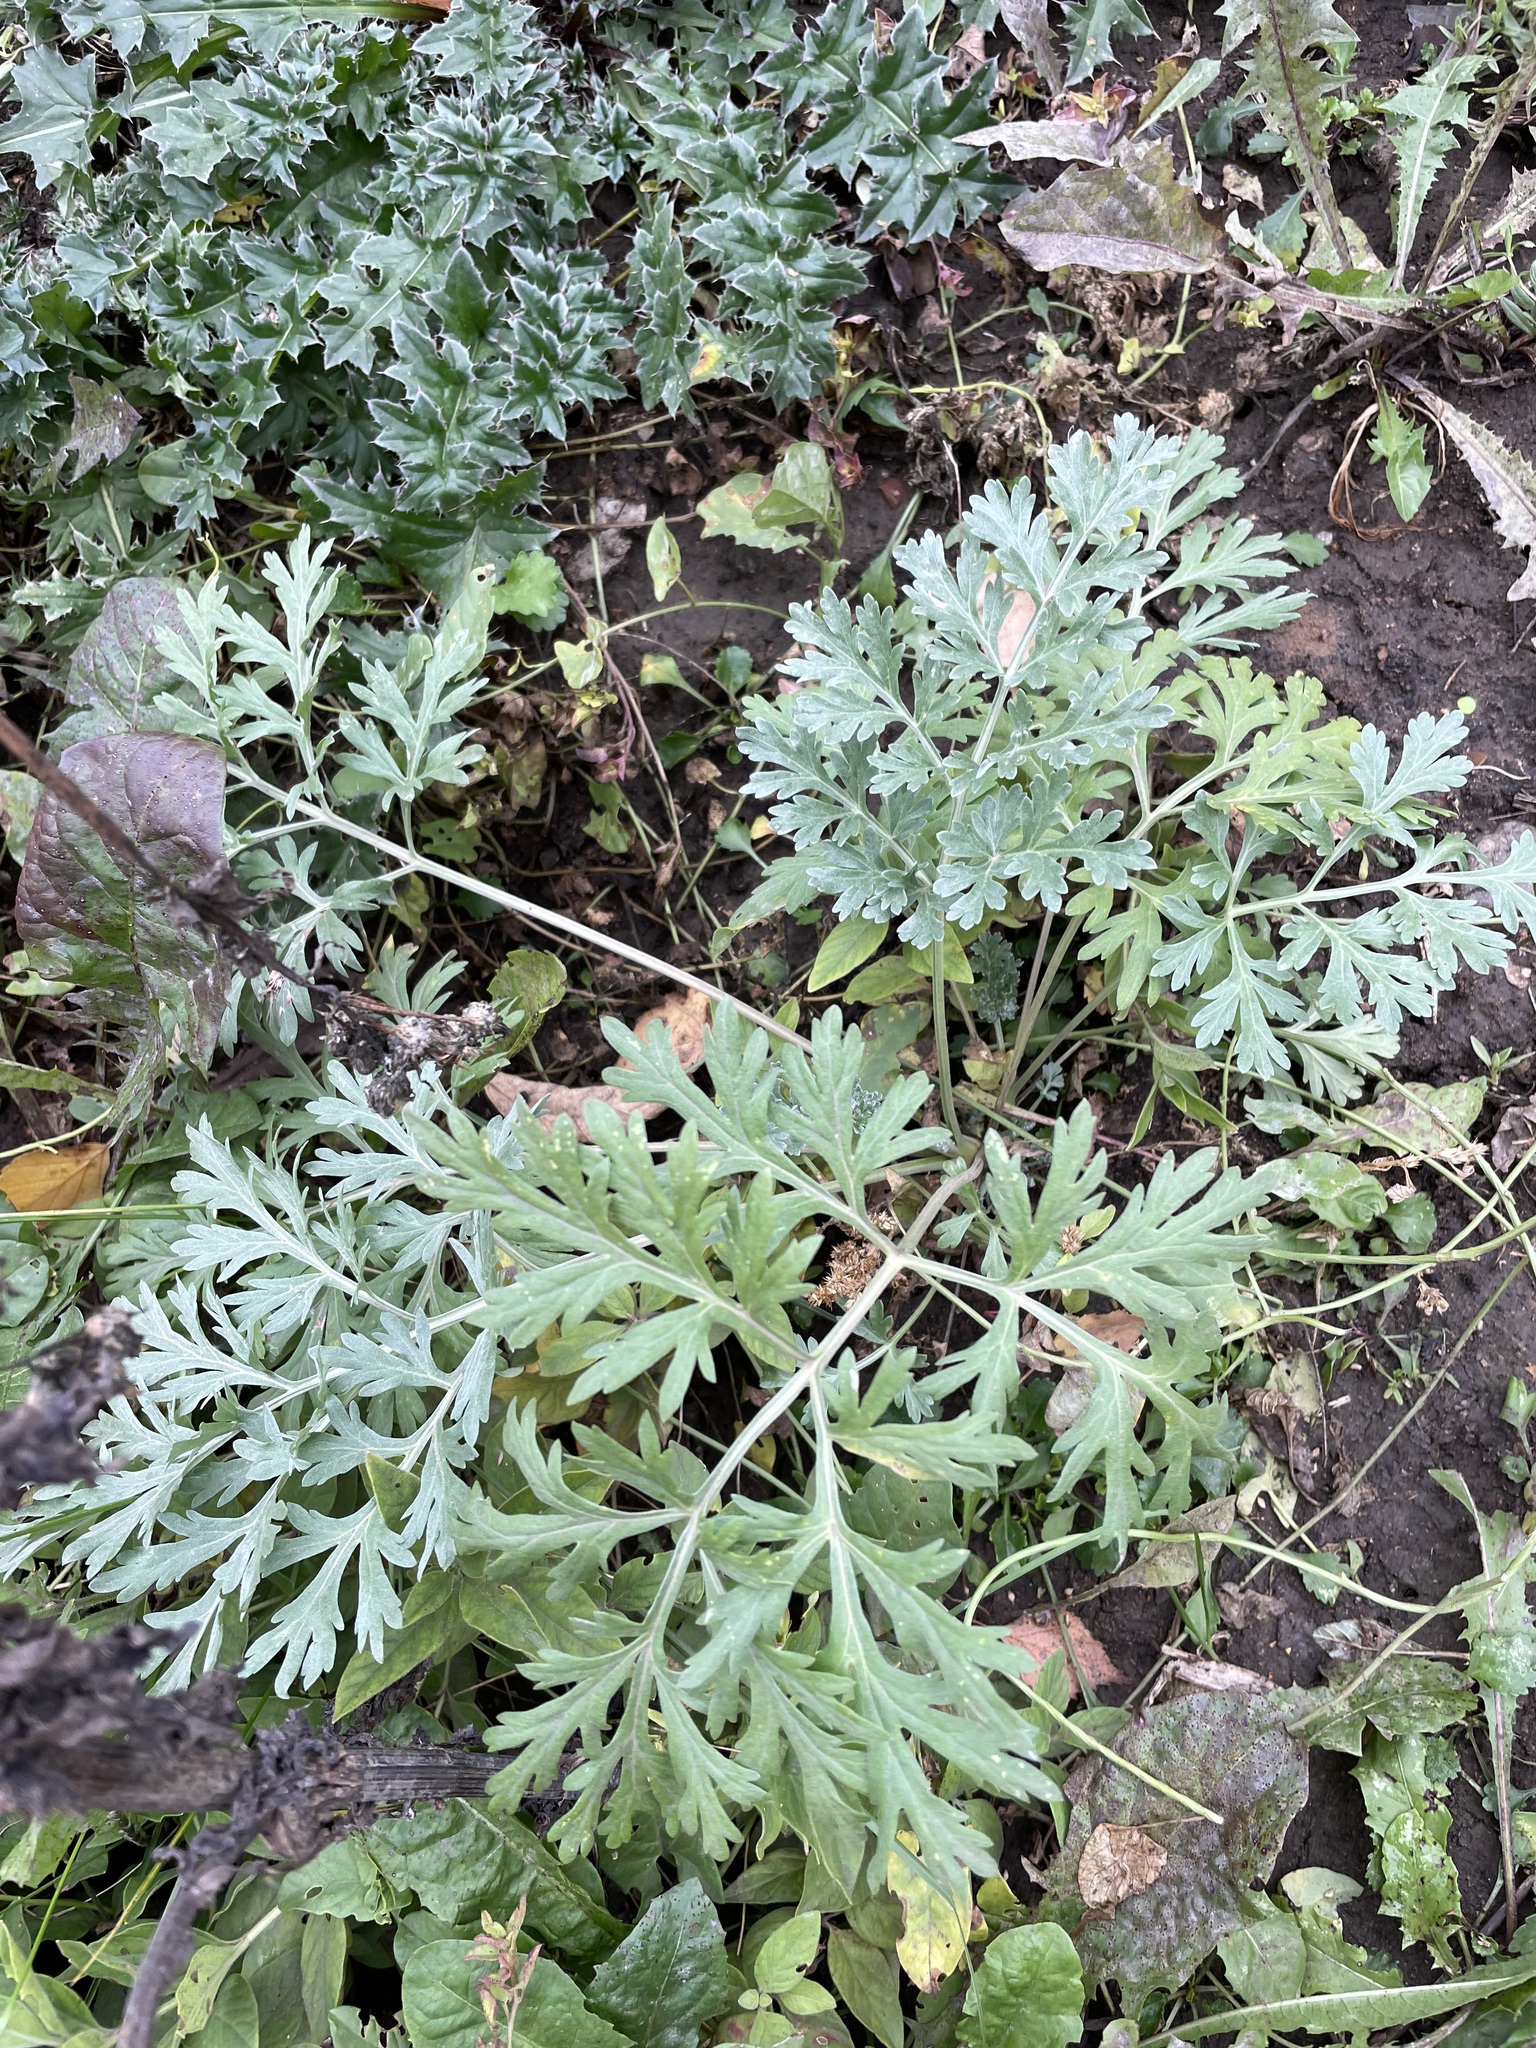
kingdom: Plantae
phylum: Tracheophyta
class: Magnoliopsida
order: Asterales
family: Asteraceae
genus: Artemisia
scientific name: Artemisia absinthium
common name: Wormwood
